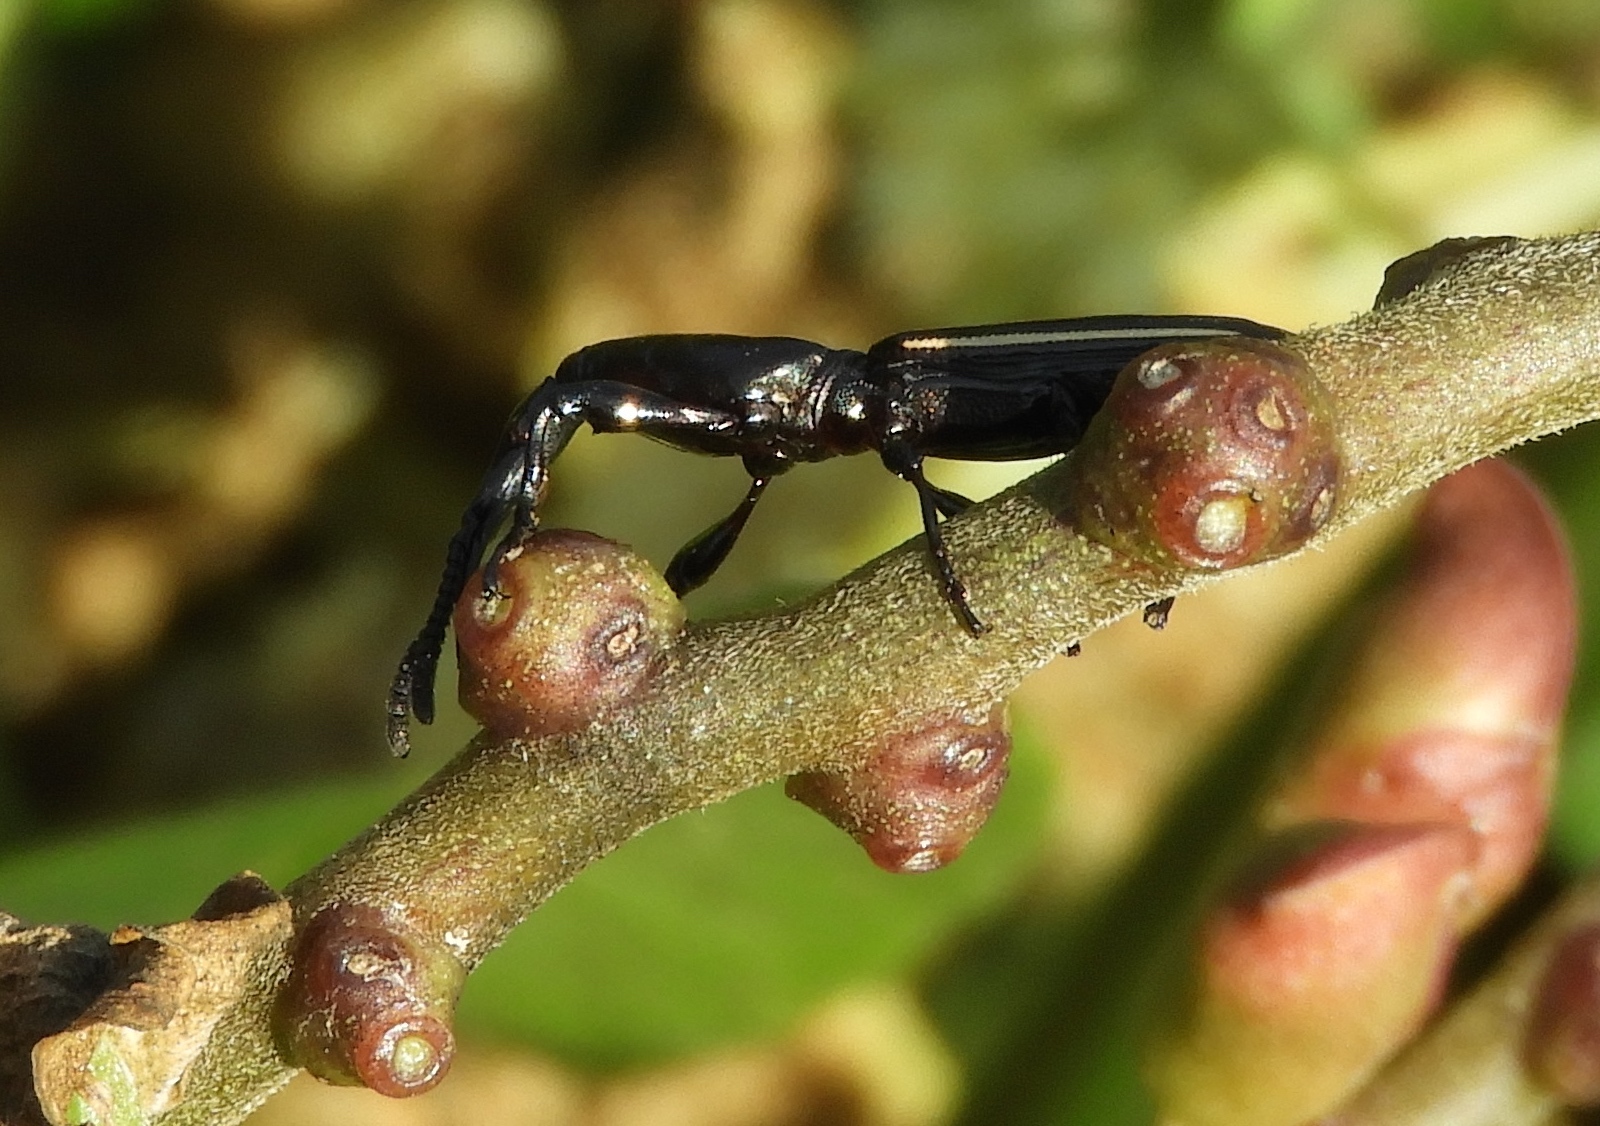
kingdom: Animalia
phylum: Arthropoda
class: Insecta
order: Coleoptera
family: Brentidae
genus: Brentus
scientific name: Brentus
